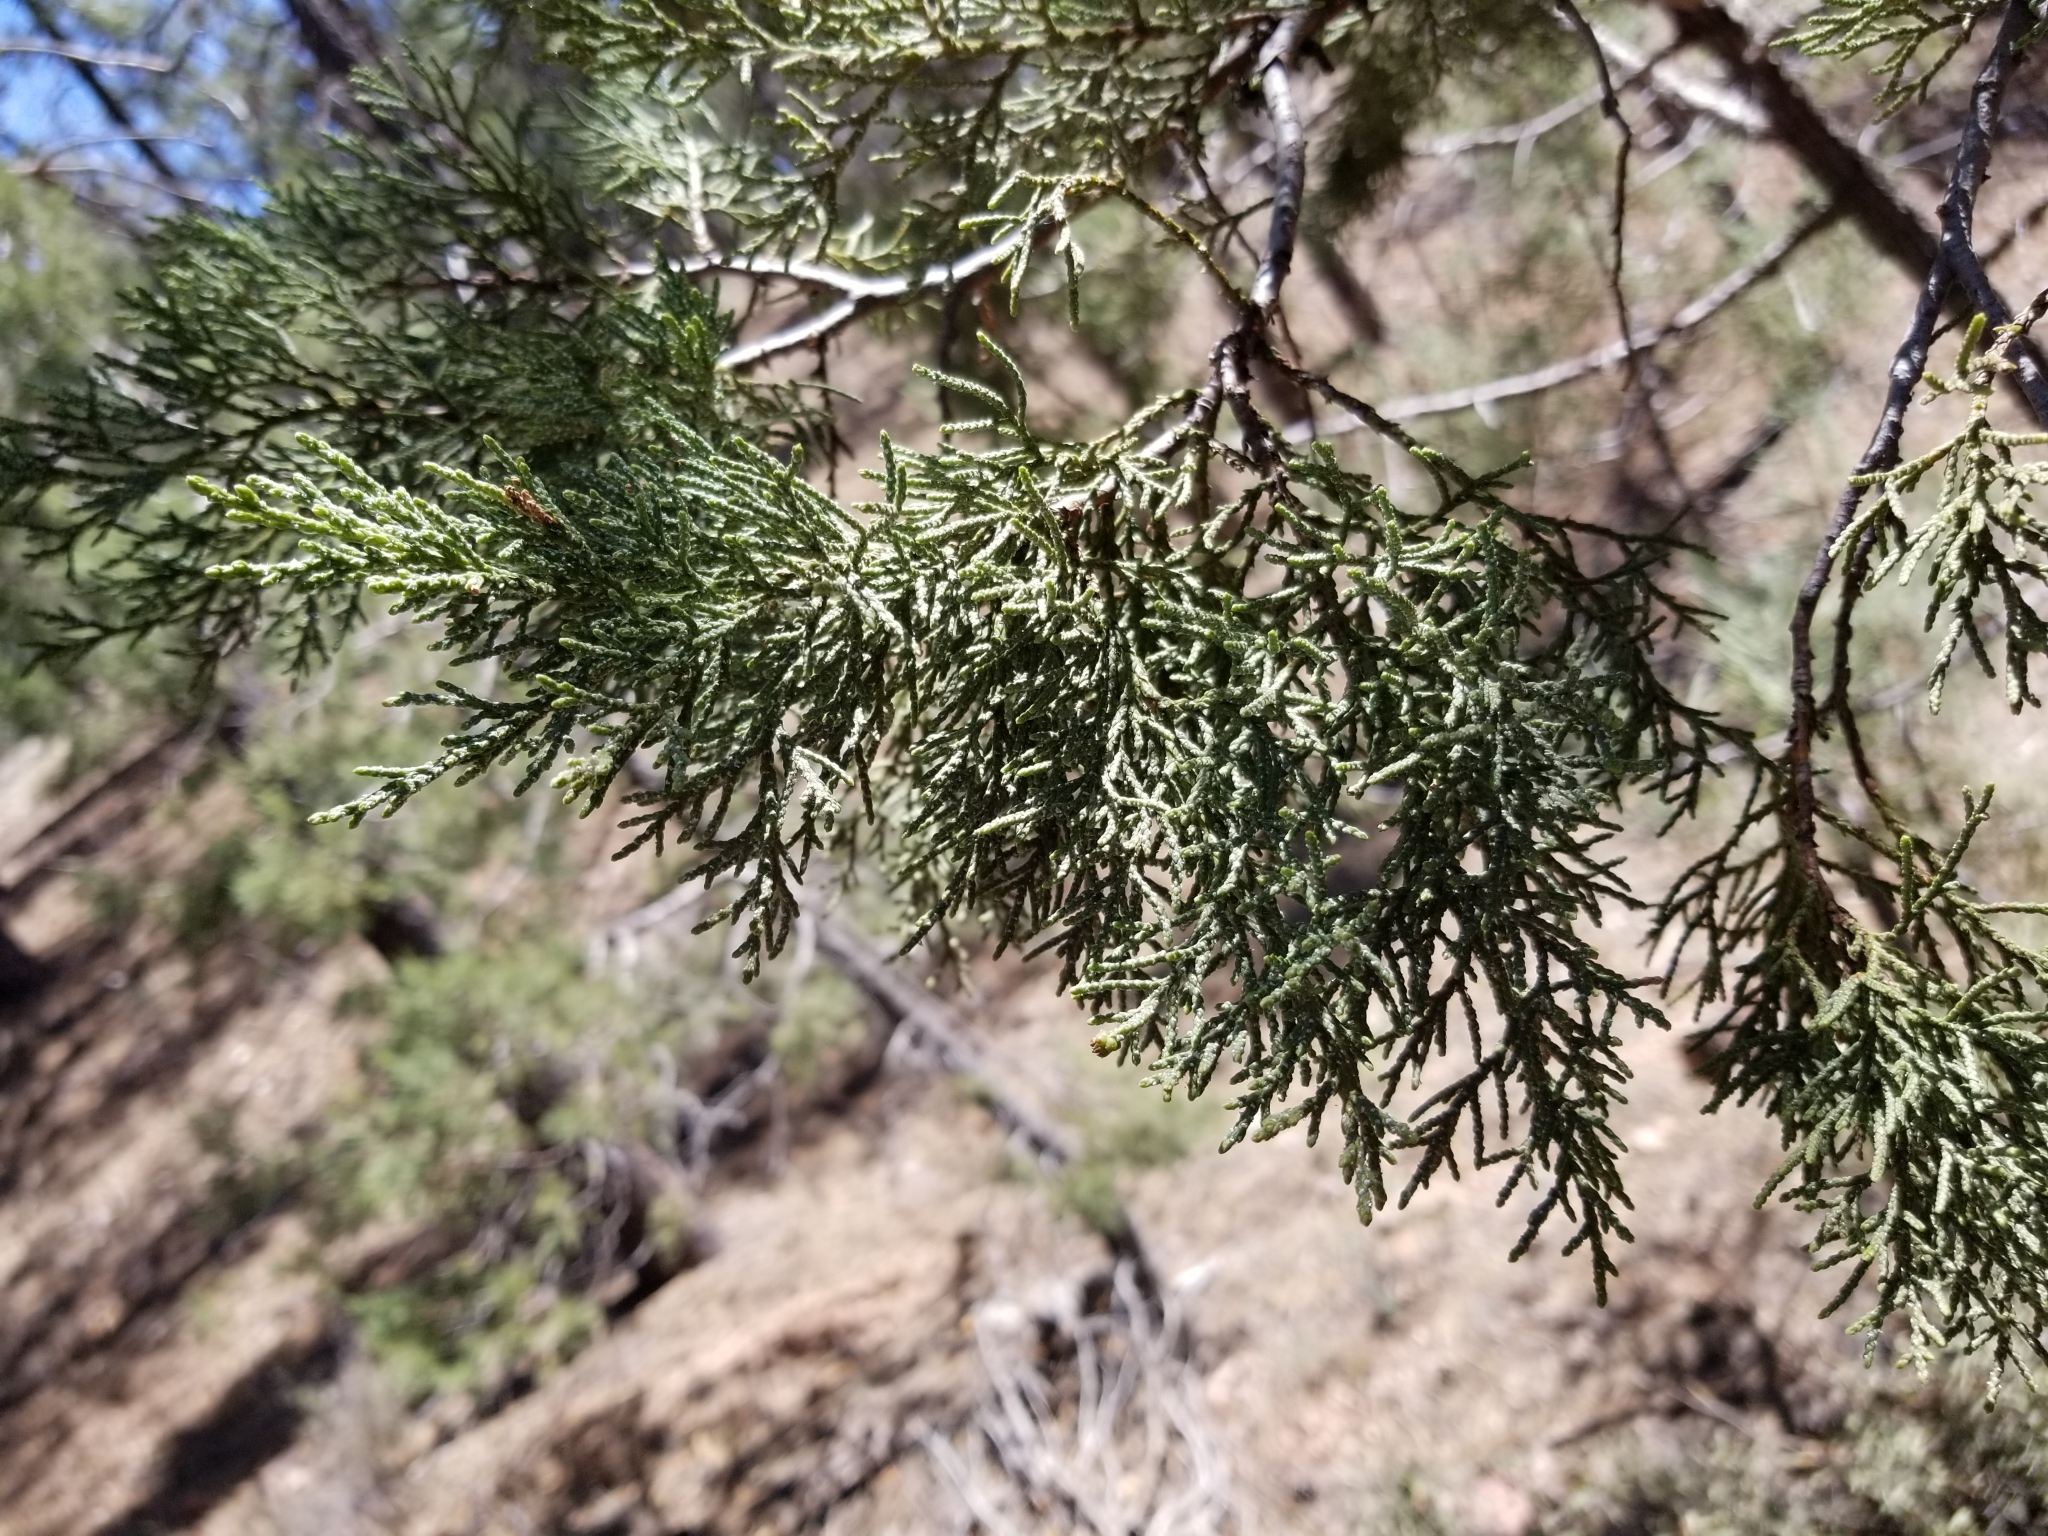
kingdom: Plantae
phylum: Tracheophyta
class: Pinopsida
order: Pinales
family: Cupressaceae
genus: Juniperus
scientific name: Juniperus deppeana
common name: Alligator juniper
